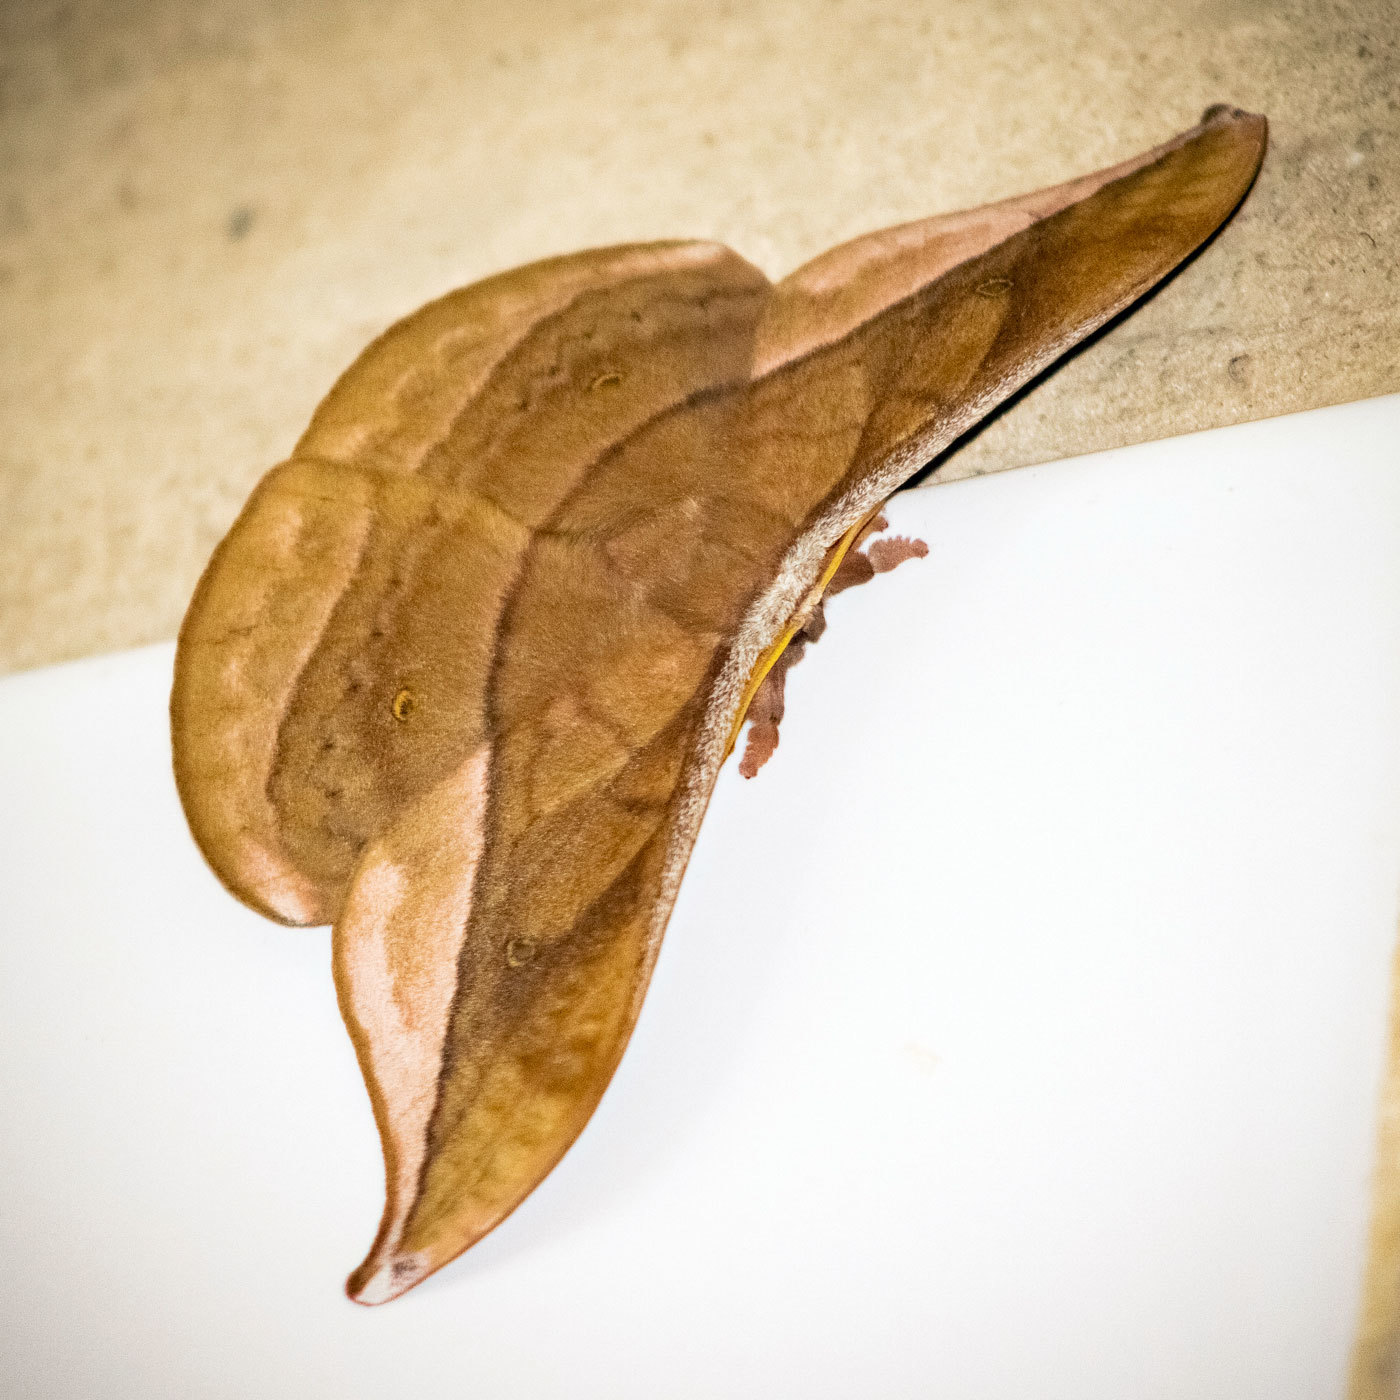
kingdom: Animalia
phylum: Arthropoda
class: Insecta
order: Lepidoptera
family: Saturniidae
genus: Copaxa
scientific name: Copaxa decrescens
